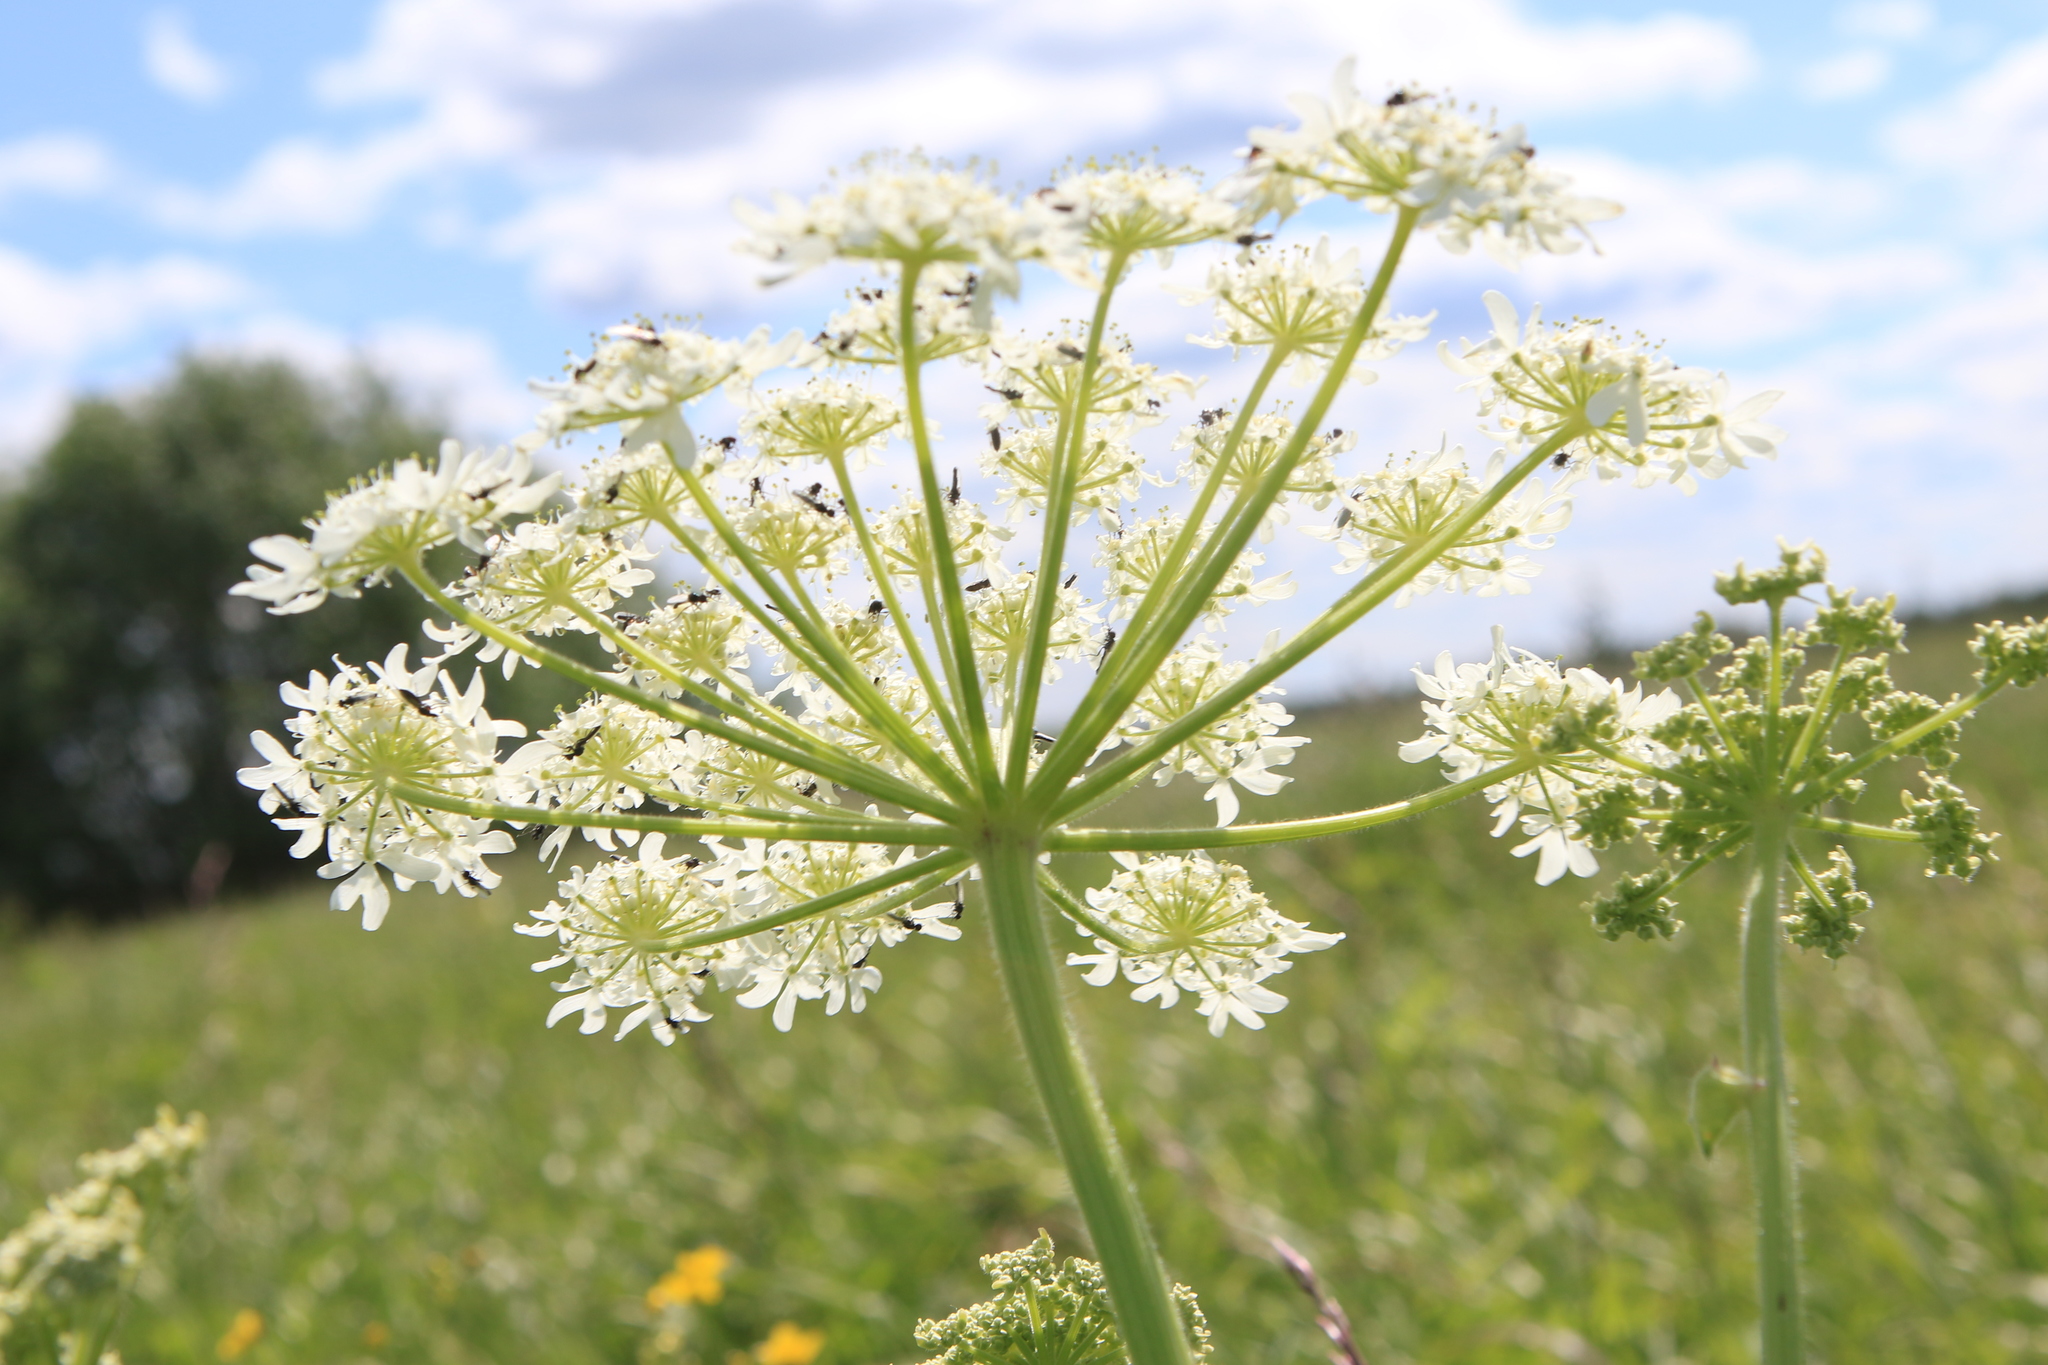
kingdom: Plantae
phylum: Tracheophyta
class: Magnoliopsida
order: Apiales
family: Apiaceae
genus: Heracleum
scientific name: Heracleum dissectum
